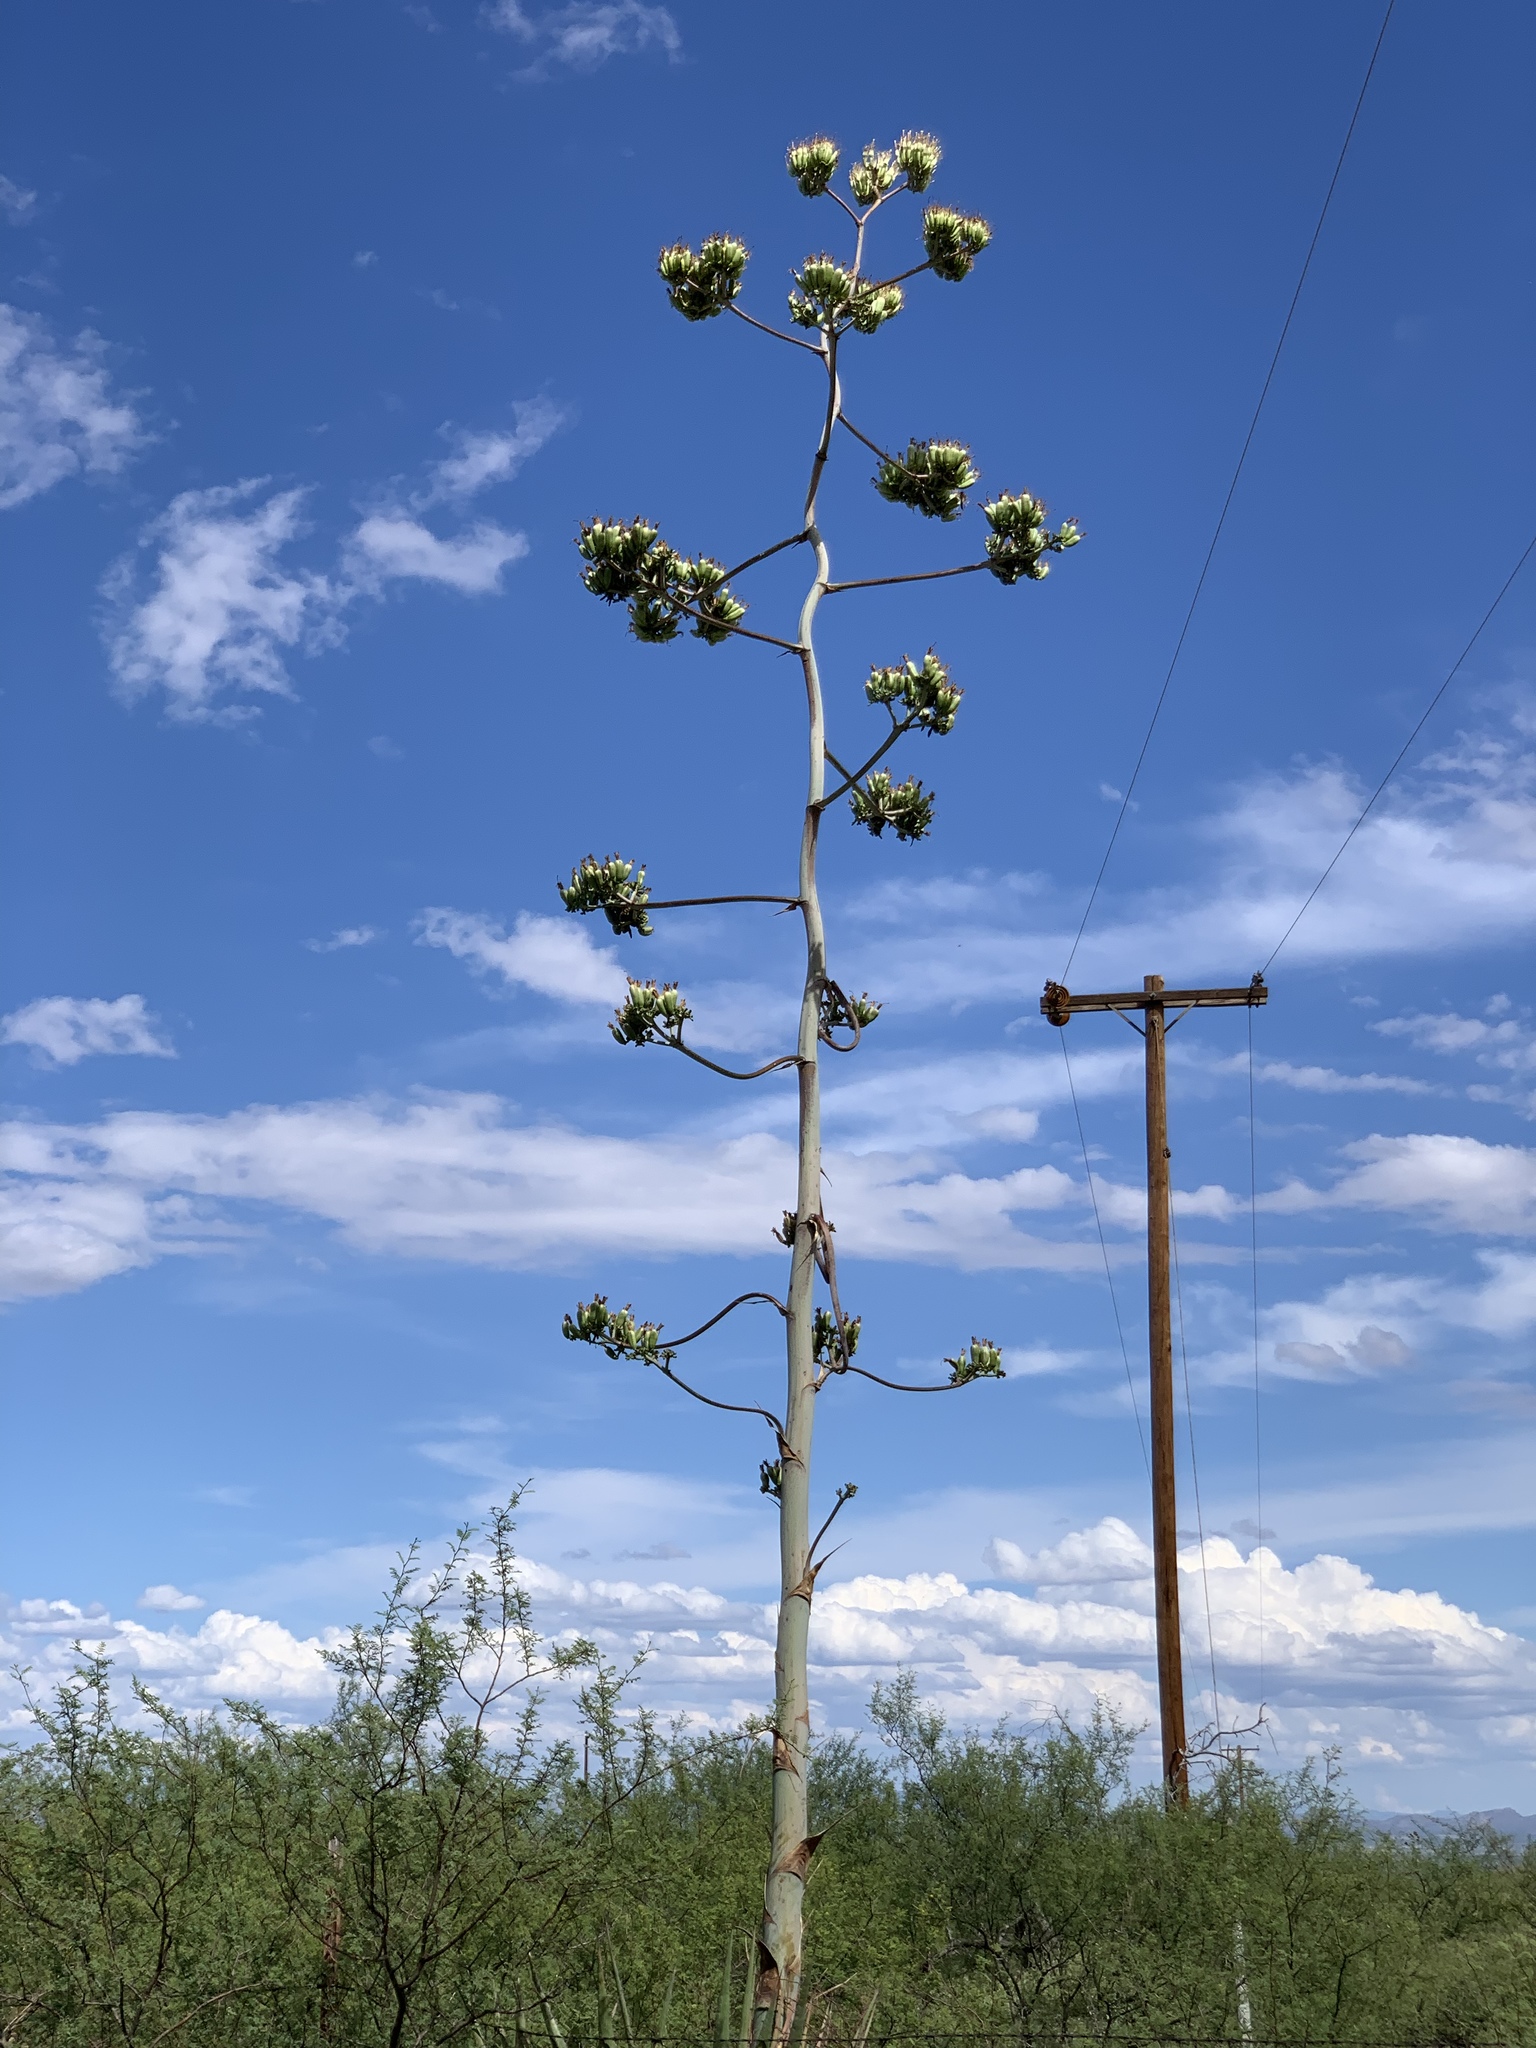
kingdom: Plantae
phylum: Tracheophyta
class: Liliopsida
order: Asparagales
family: Asparagaceae
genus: Agave
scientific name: Agave palmeri
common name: Palmer agave
